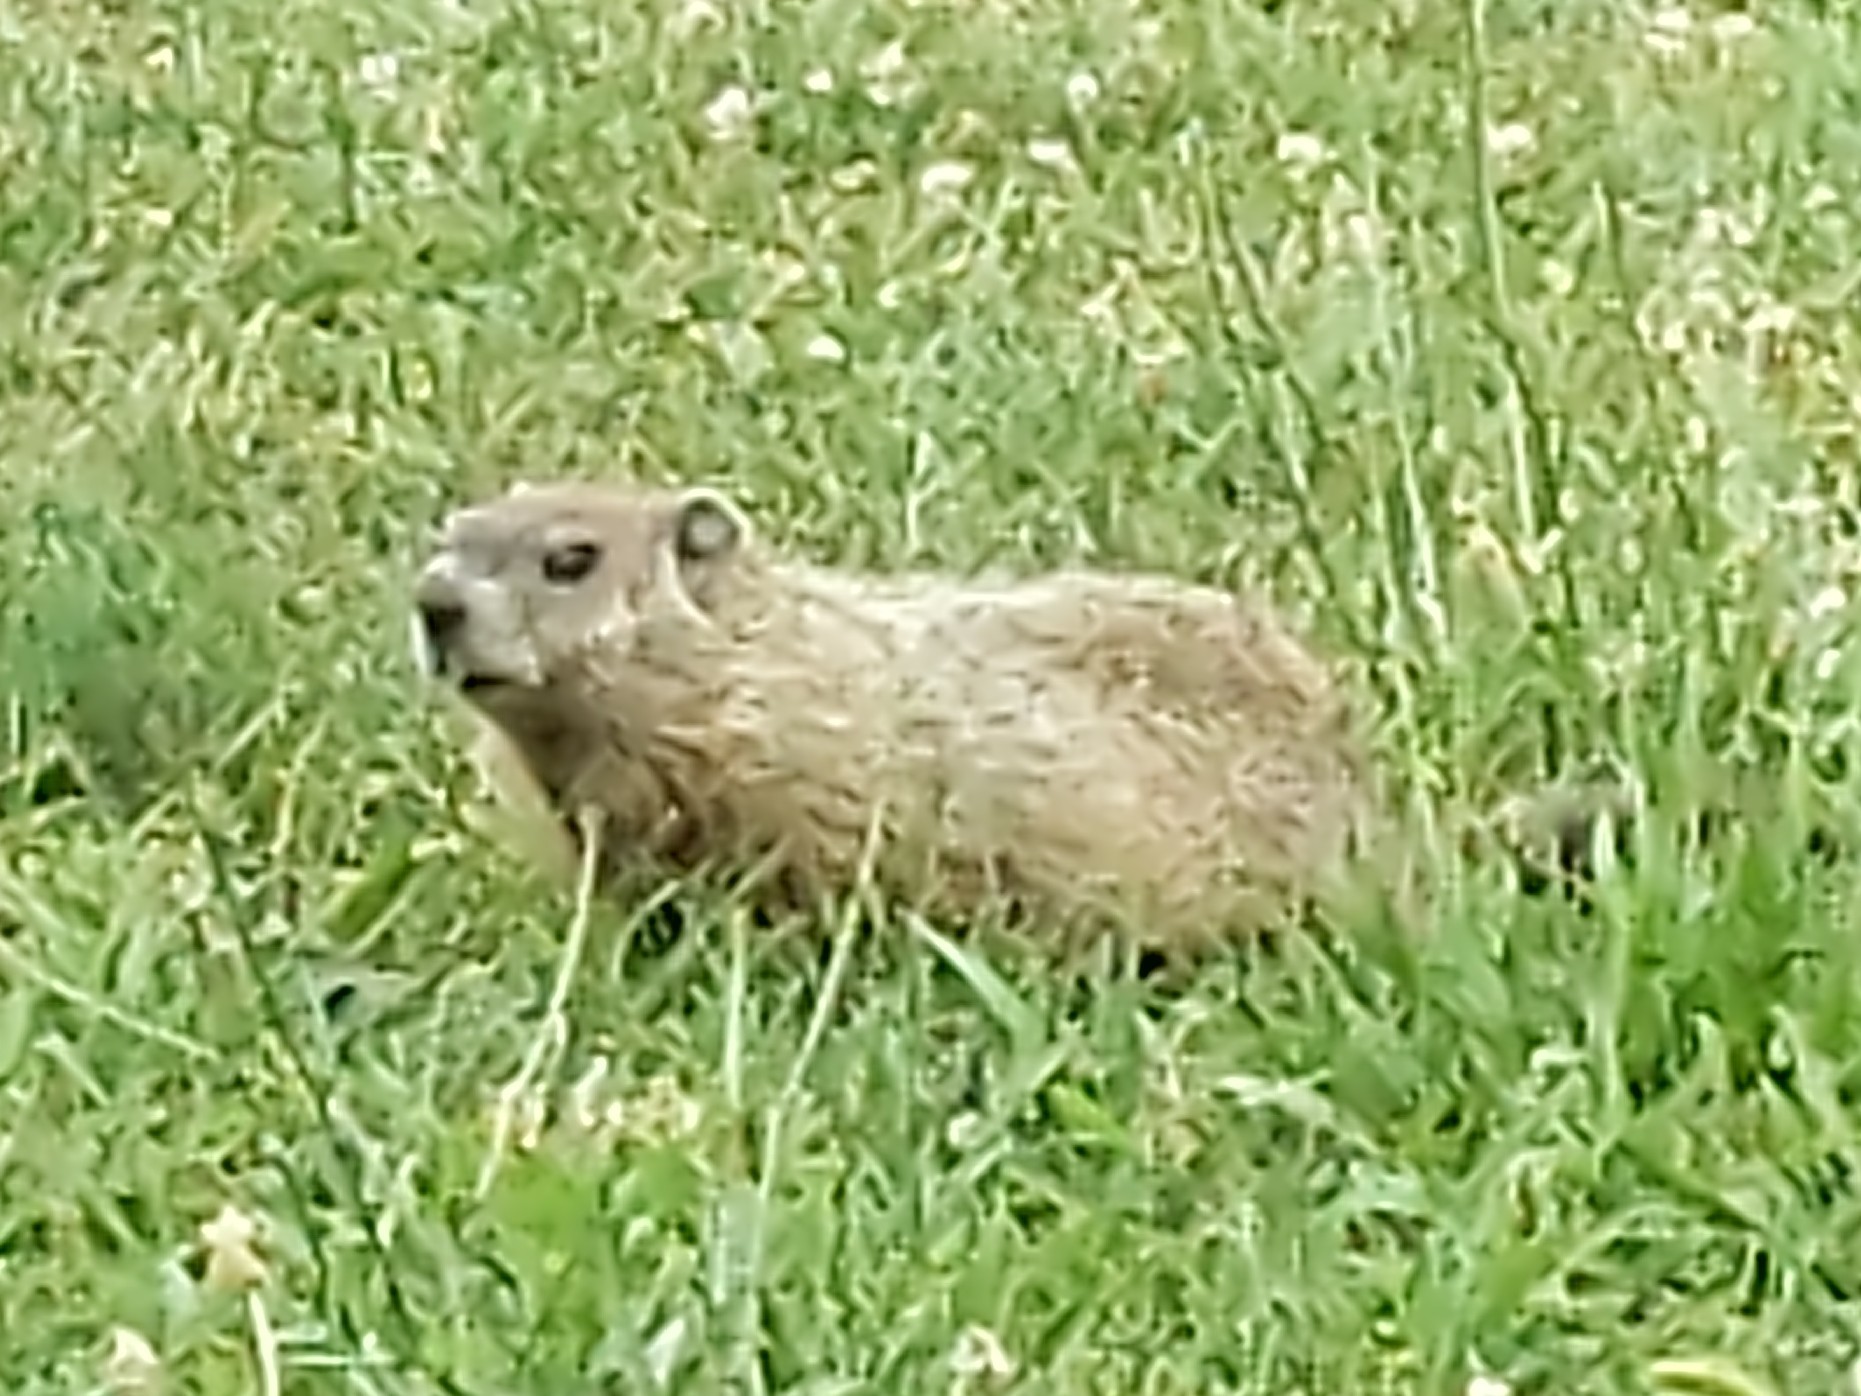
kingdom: Animalia
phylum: Chordata
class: Mammalia
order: Rodentia
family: Sciuridae
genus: Marmota
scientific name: Marmota monax
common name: Groundhog
